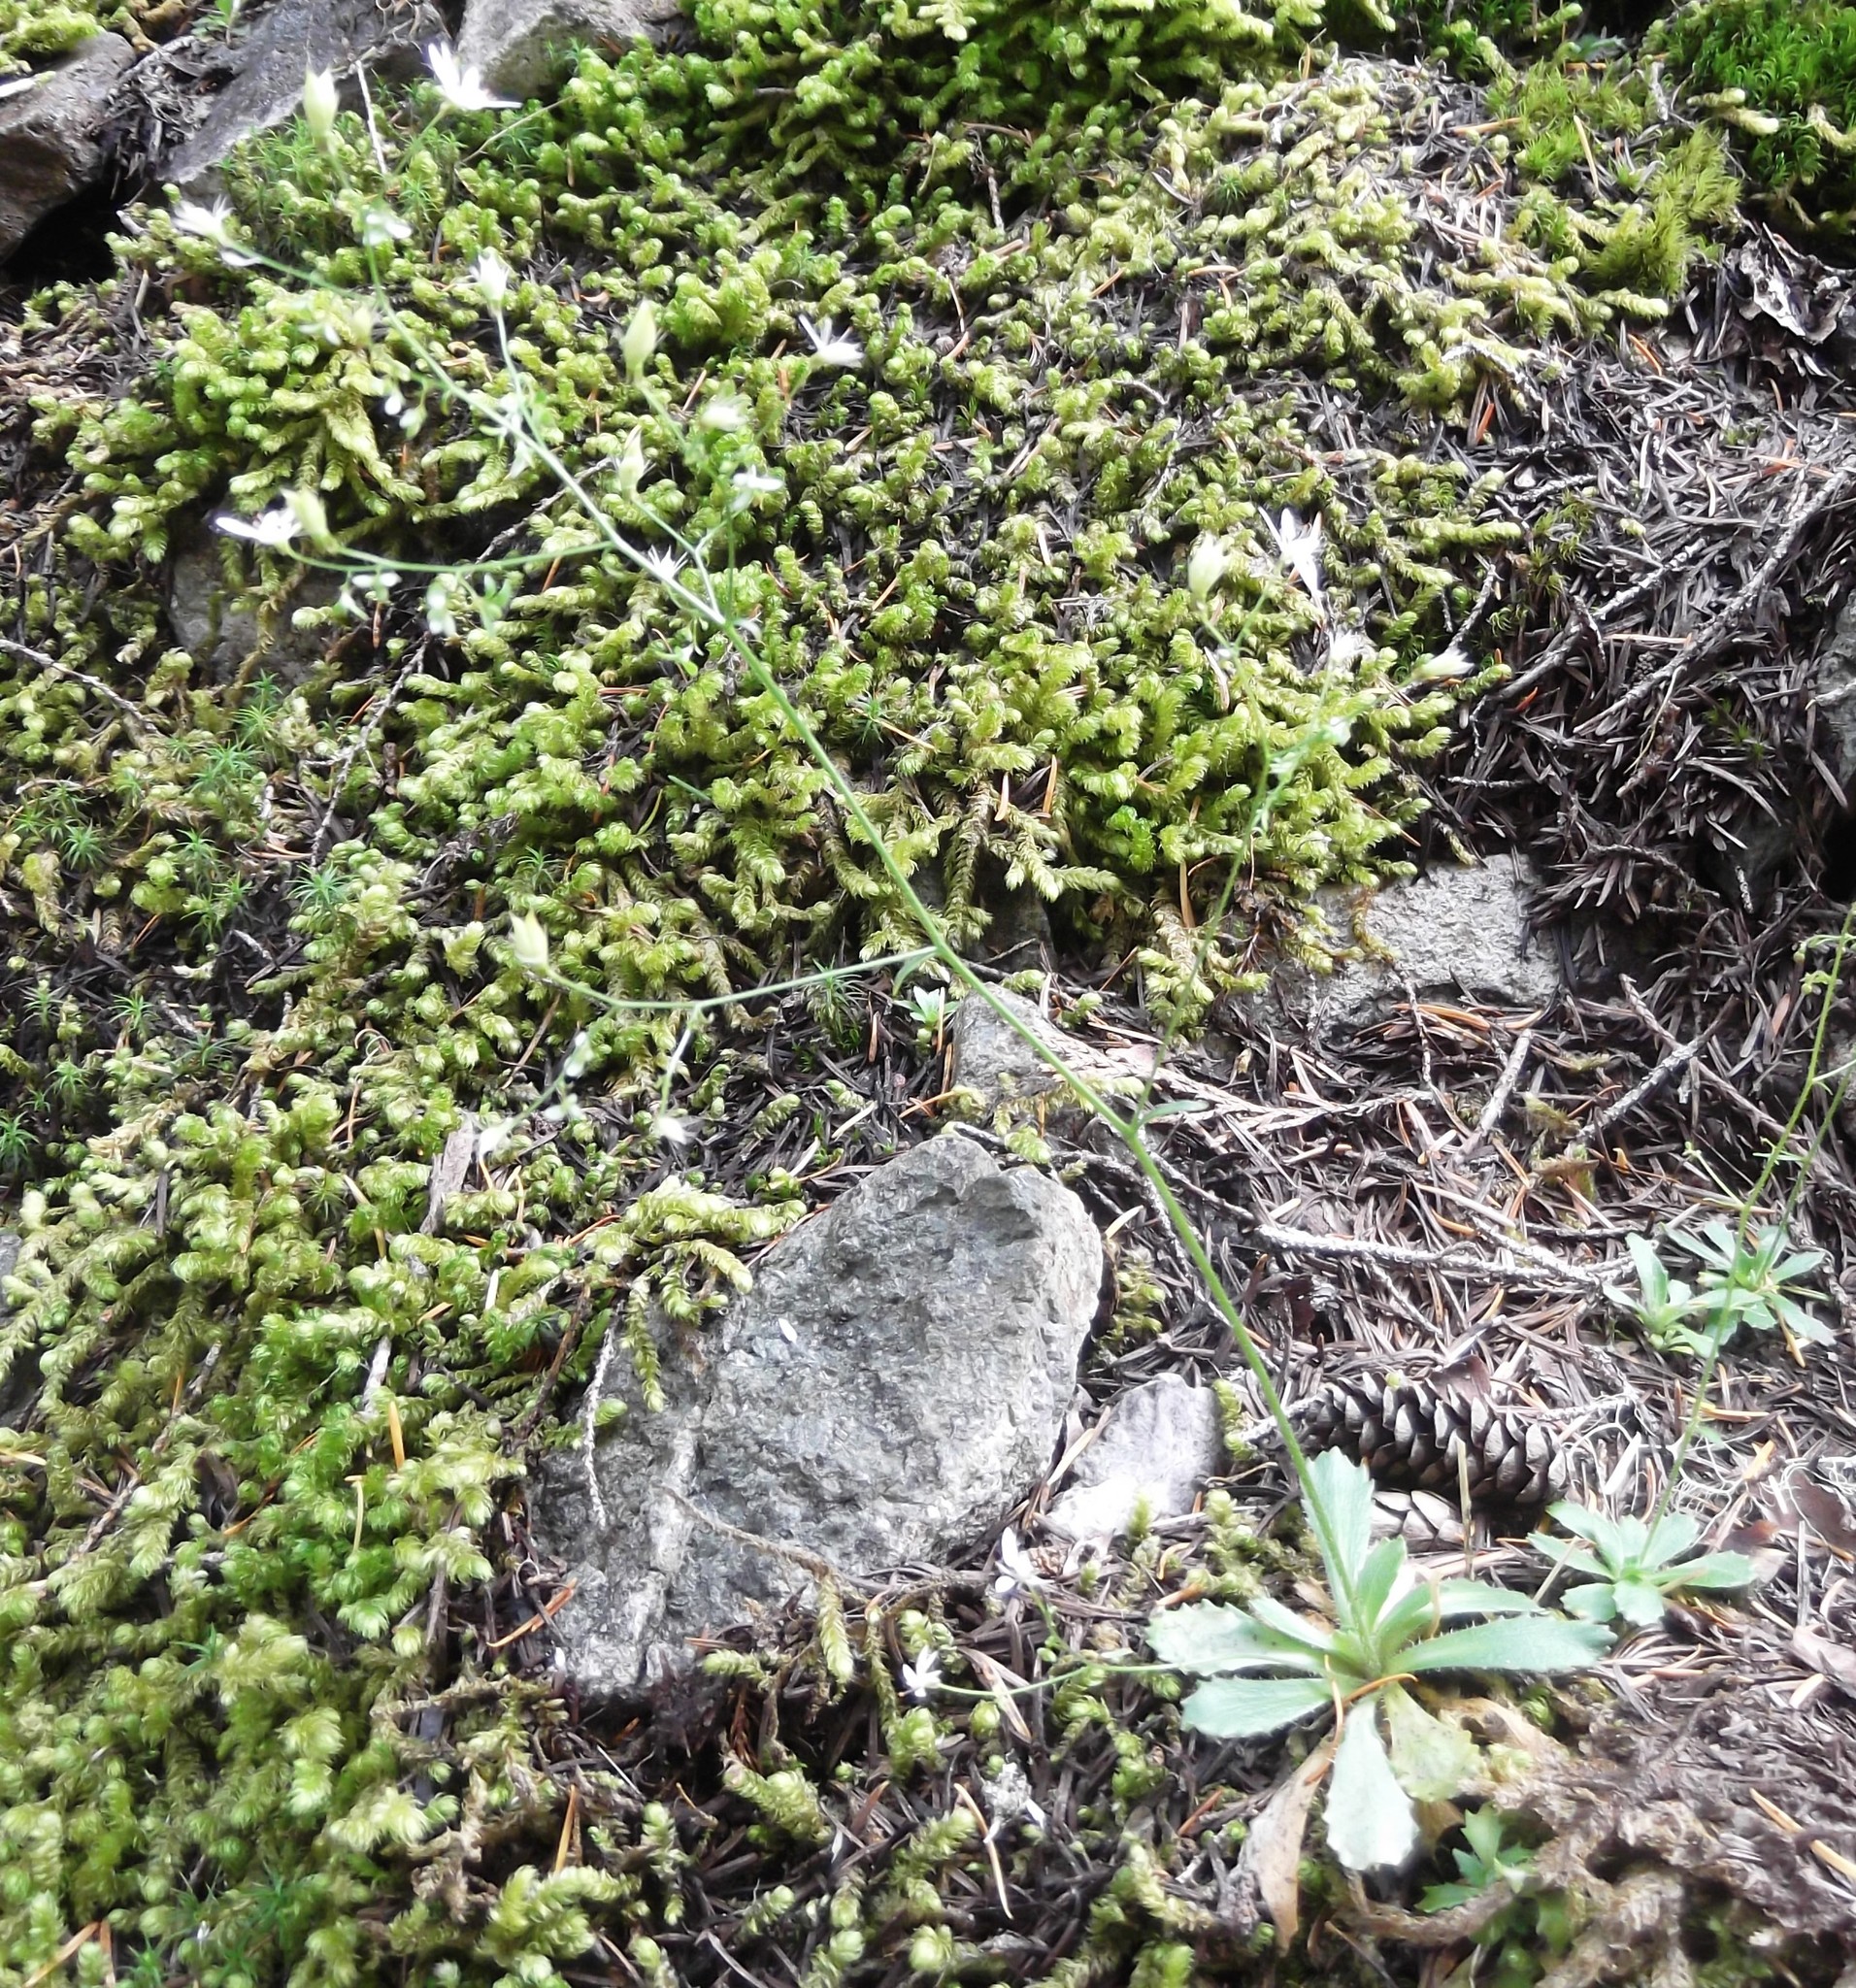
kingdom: Plantae
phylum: Tracheophyta
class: Magnoliopsida
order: Saxifragales
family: Saxifragaceae
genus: Micranthes
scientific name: Micranthes ferruginea
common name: Rusty saxifrage
